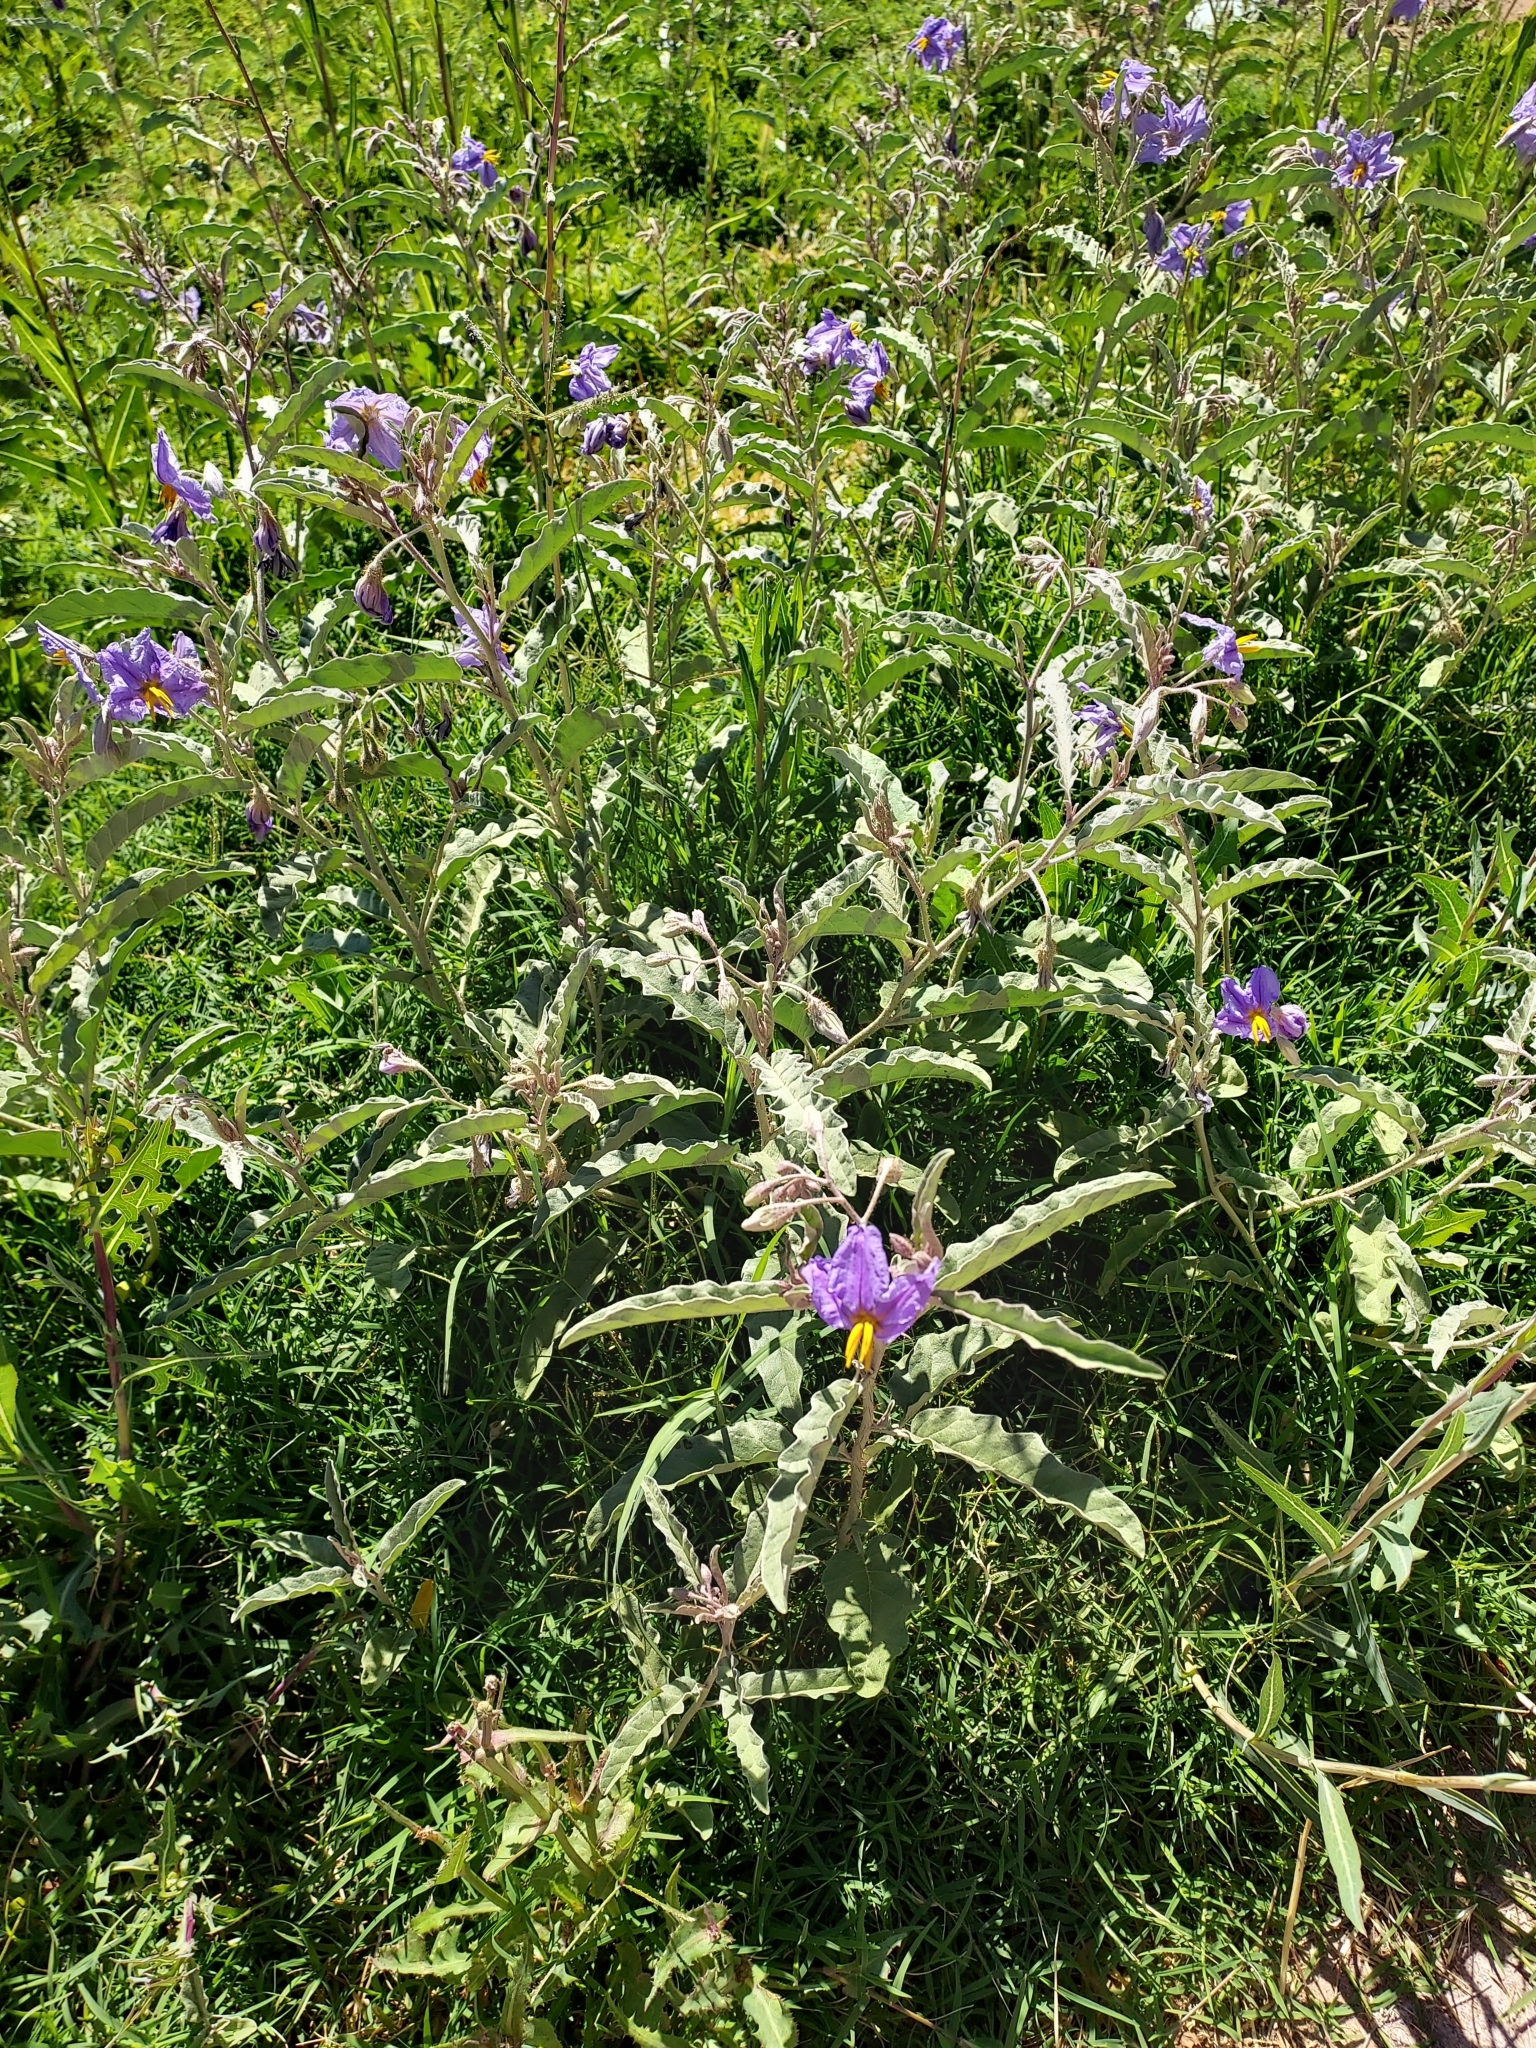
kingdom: Plantae
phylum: Tracheophyta
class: Magnoliopsida
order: Solanales
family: Solanaceae
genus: Solanum
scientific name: Solanum elaeagnifolium
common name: Silverleaf nightshade
